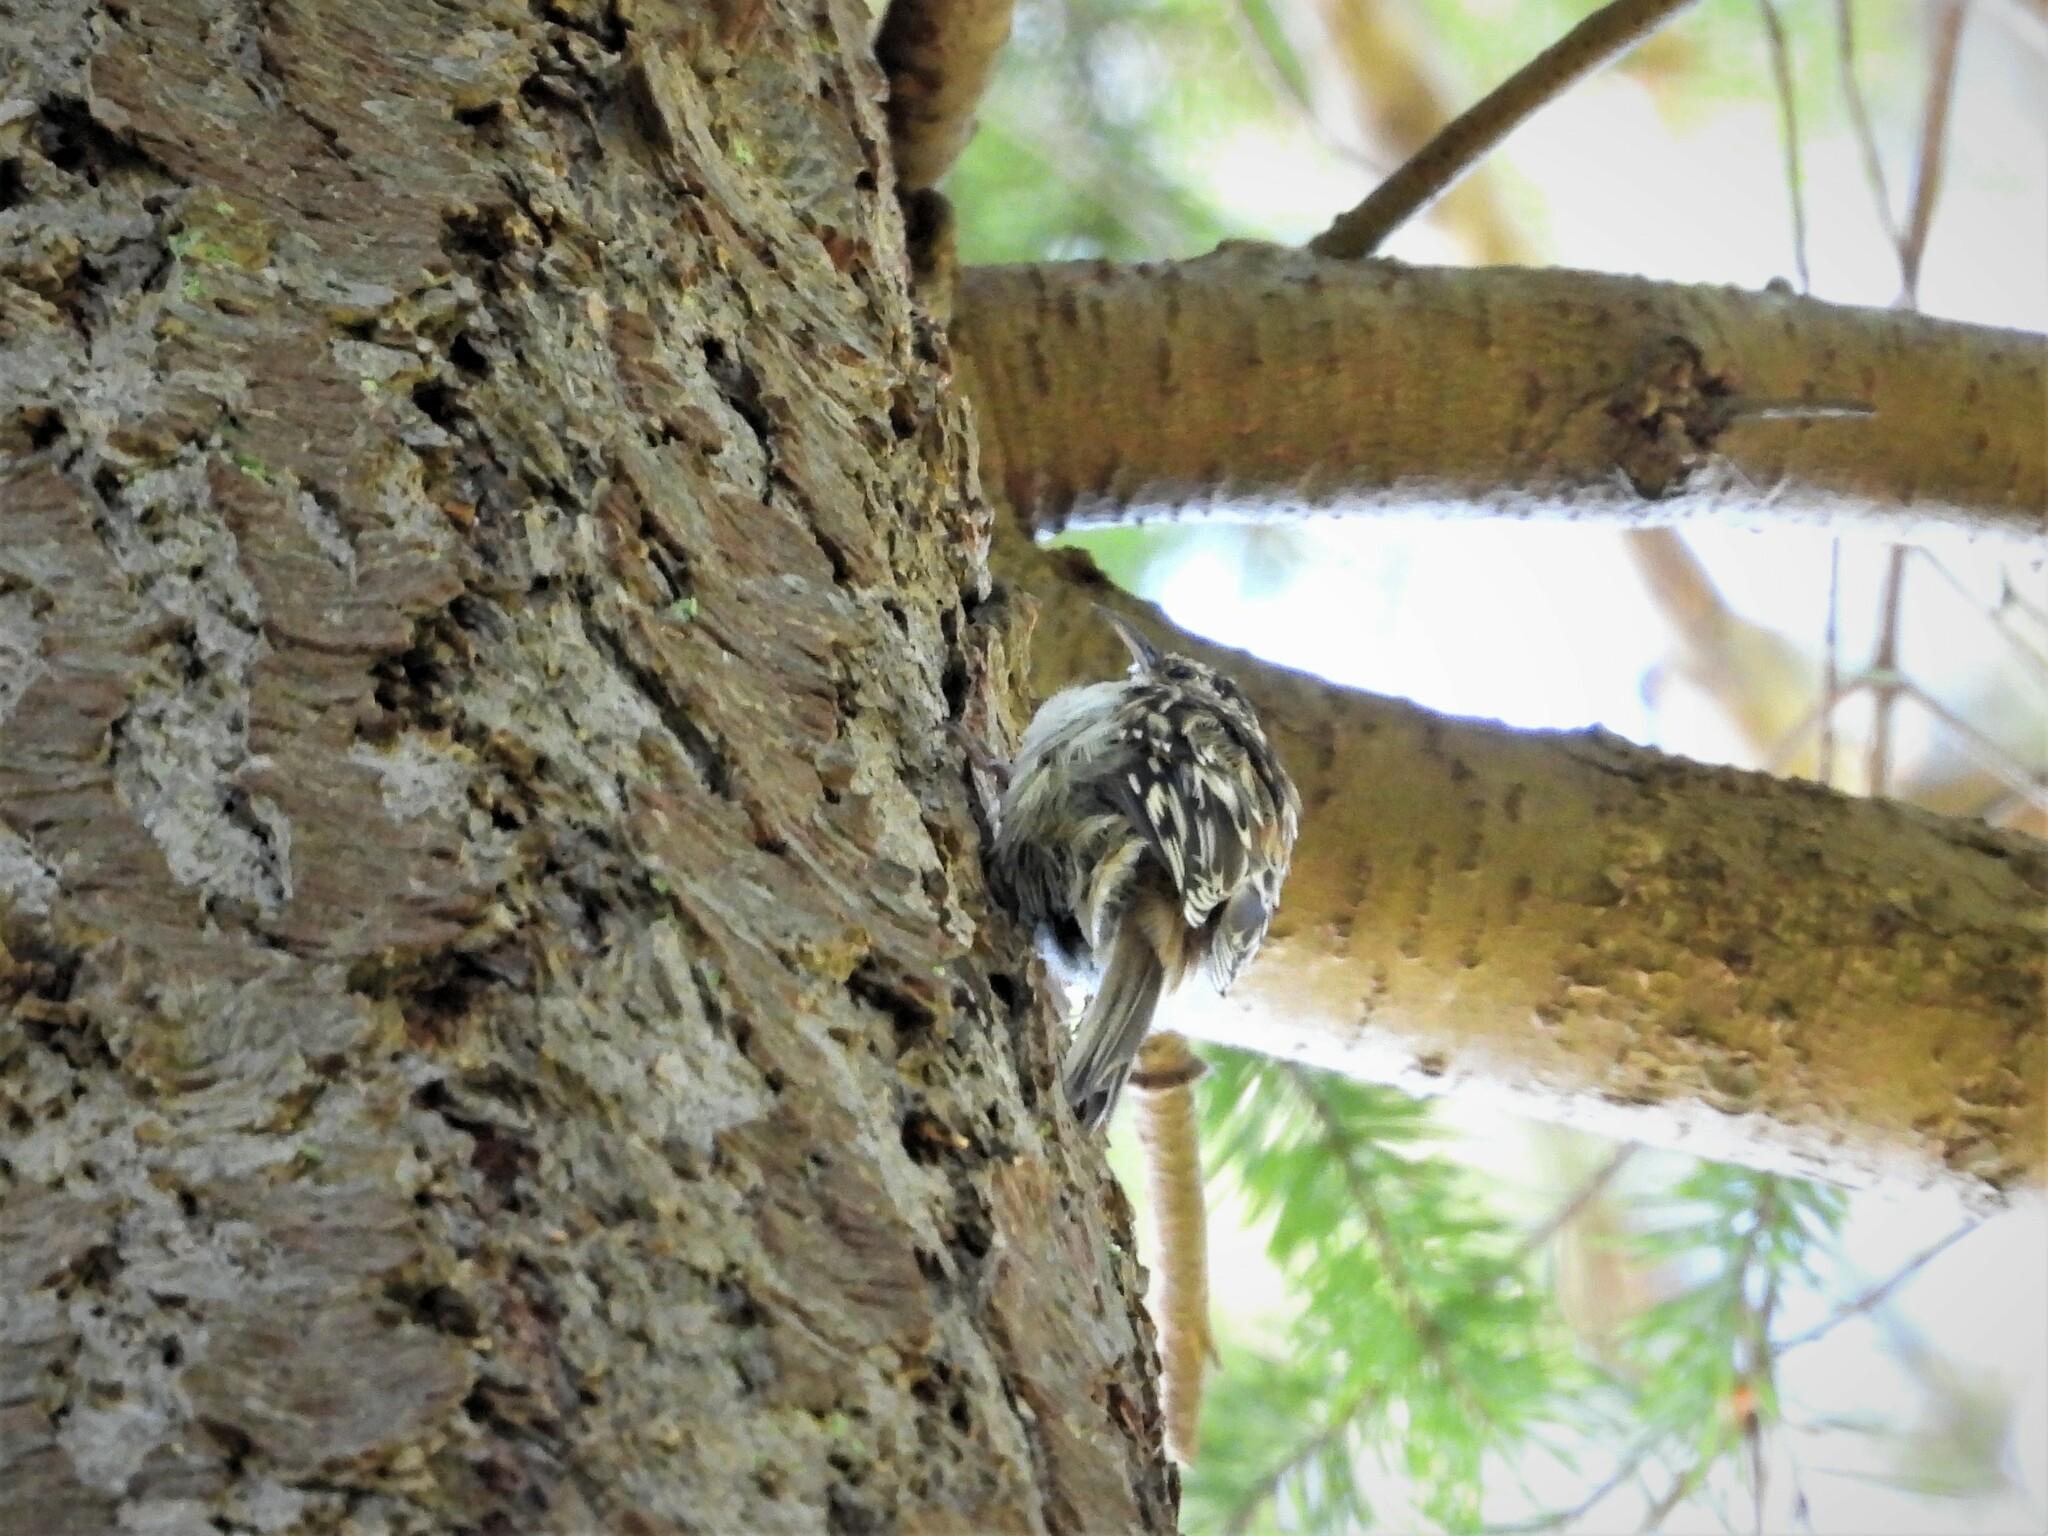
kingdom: Animalia
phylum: Chordata
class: Aves
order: Passeriformes
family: Certhiidae
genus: Certhia
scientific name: Certhia americana
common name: Brown creeper
